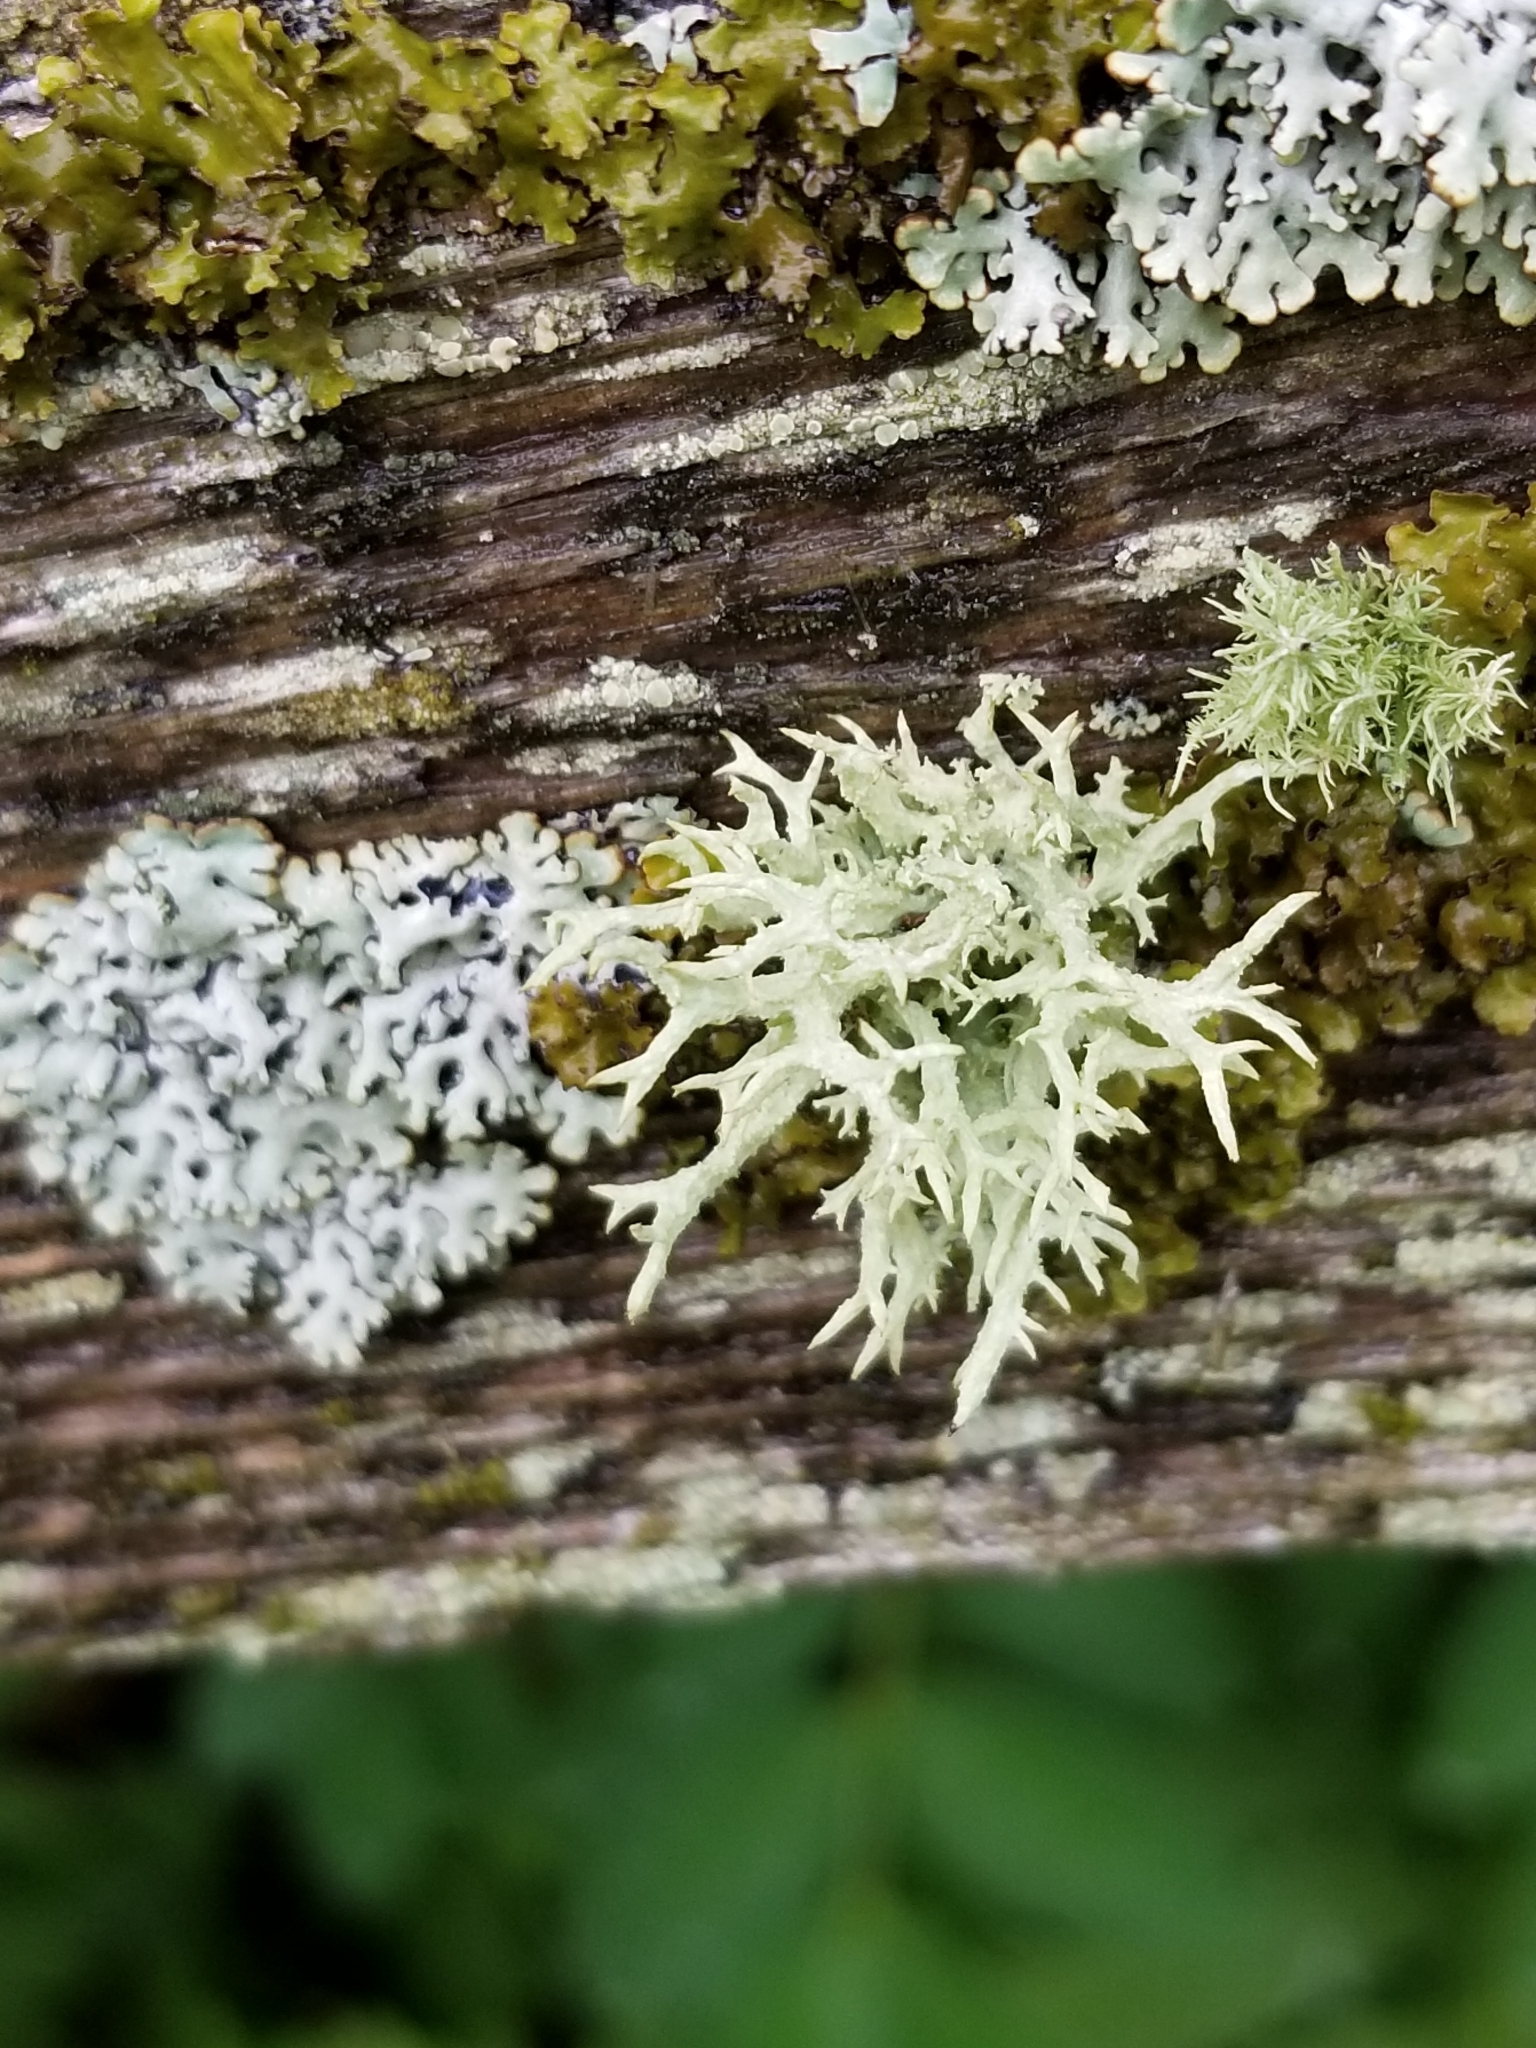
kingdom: Fungi
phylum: Ascomycota
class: Lecanoromycetes
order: Lecanorales
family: Parmeliaceae
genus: Evernia
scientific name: Evernia mesomorpha
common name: Boreal oak moss lichen
